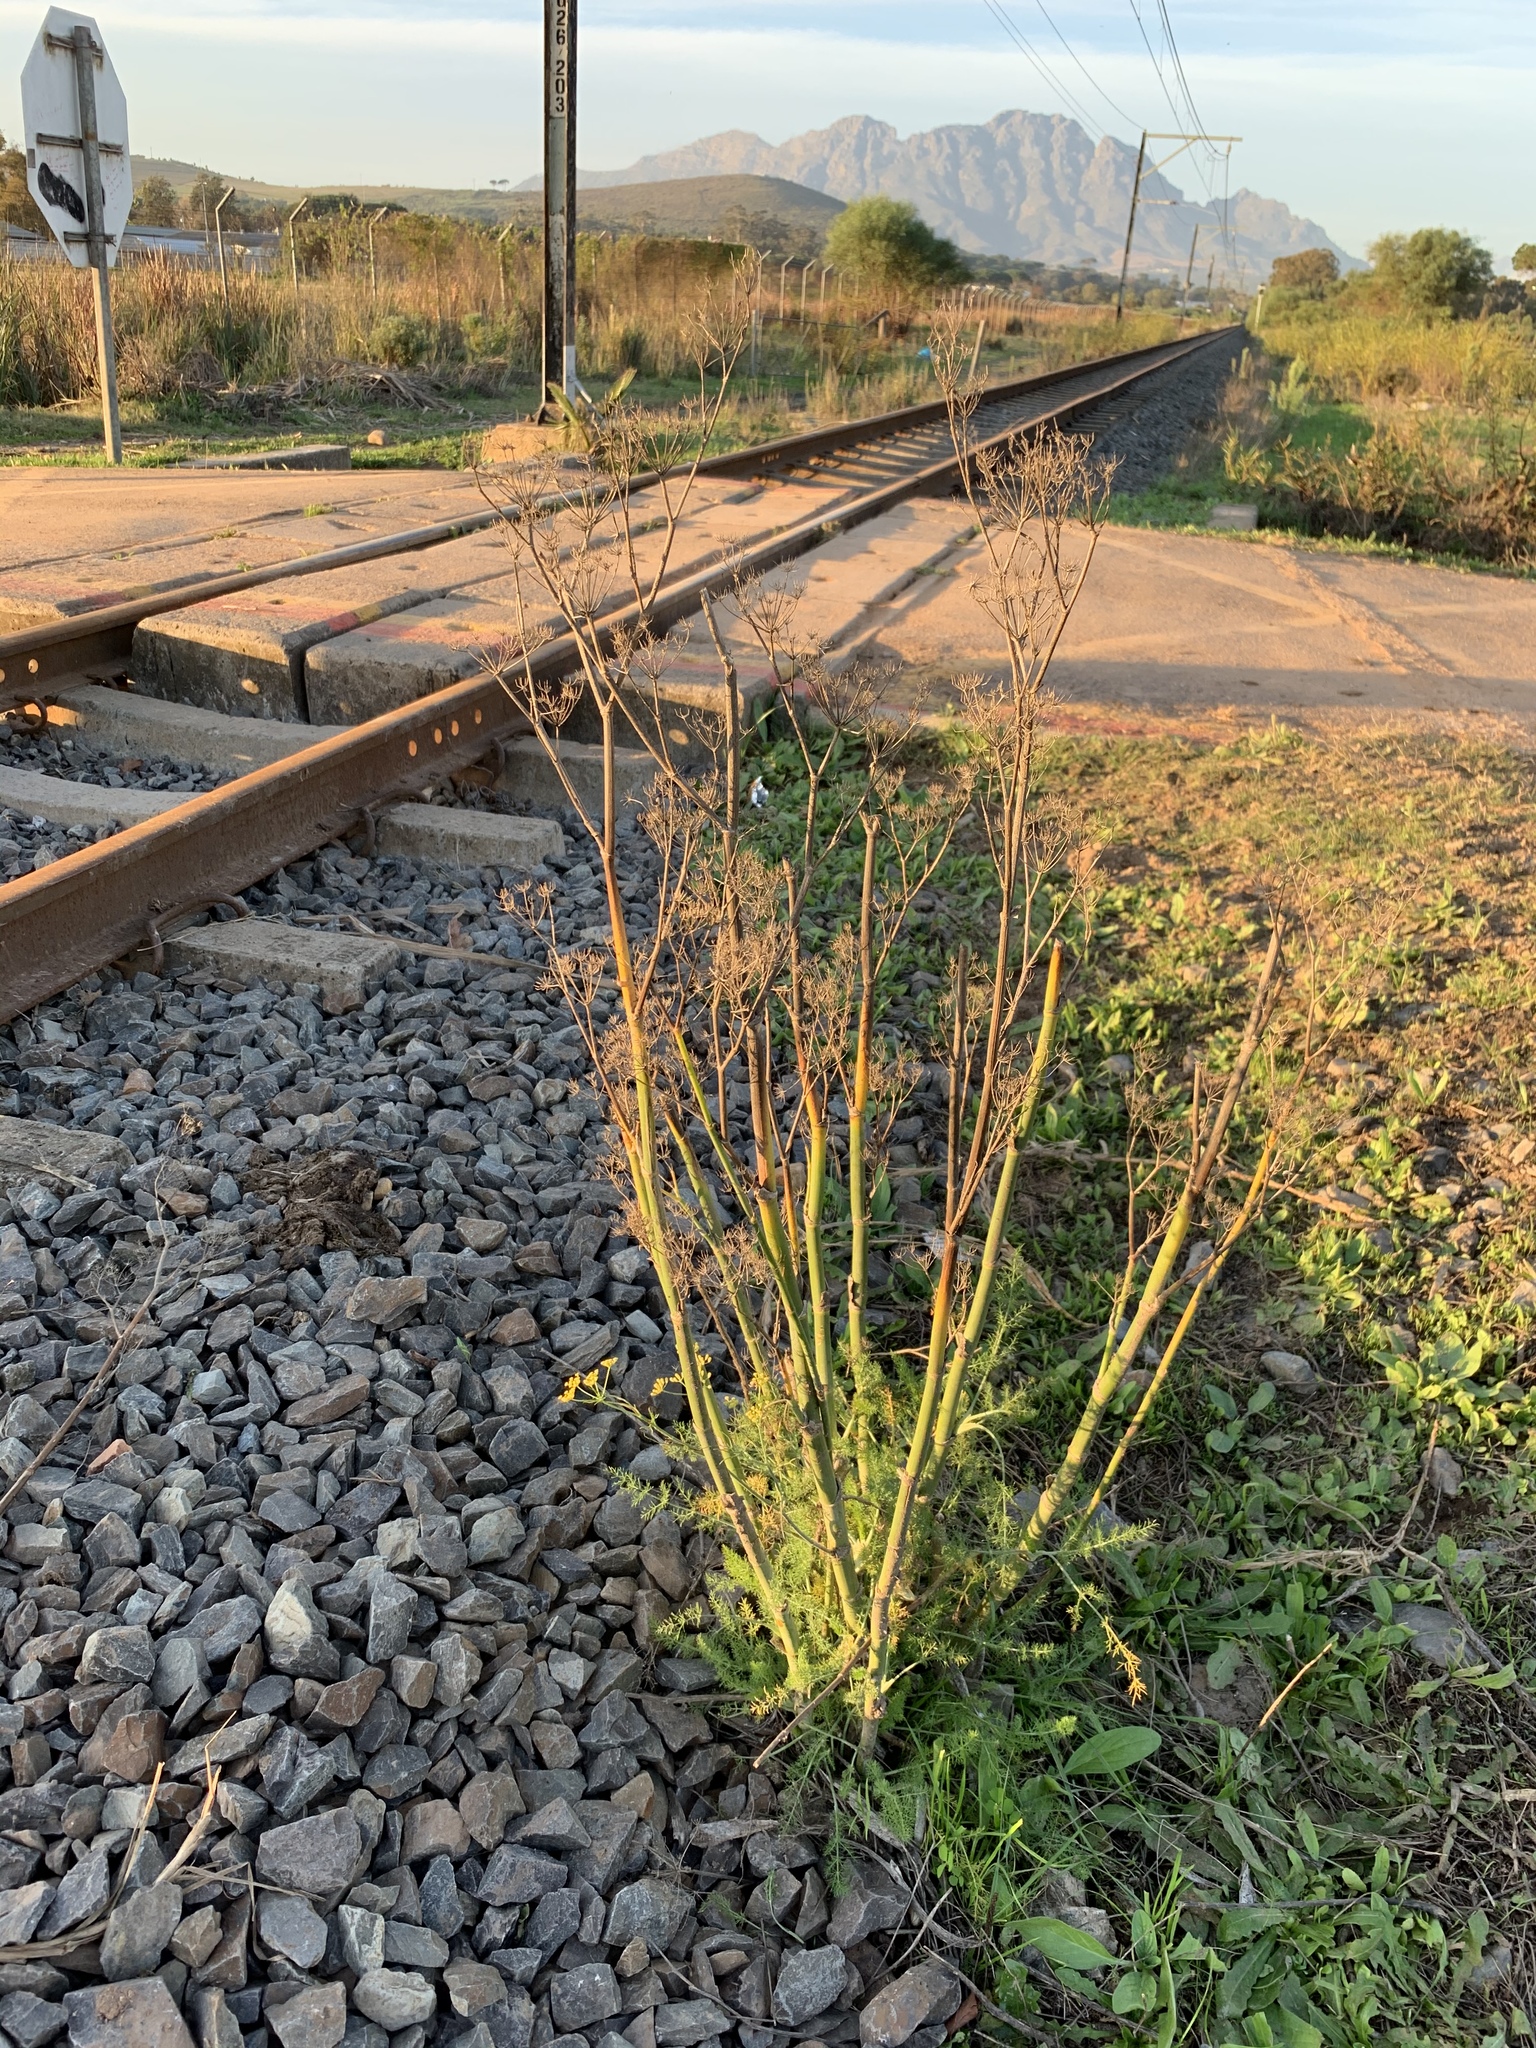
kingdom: Plantae
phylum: Tracheophyta
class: Magnoliopsida
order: Apiales
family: Apiaceae
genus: Foeniculum
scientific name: Foeniculum vulgare
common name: Fennel
